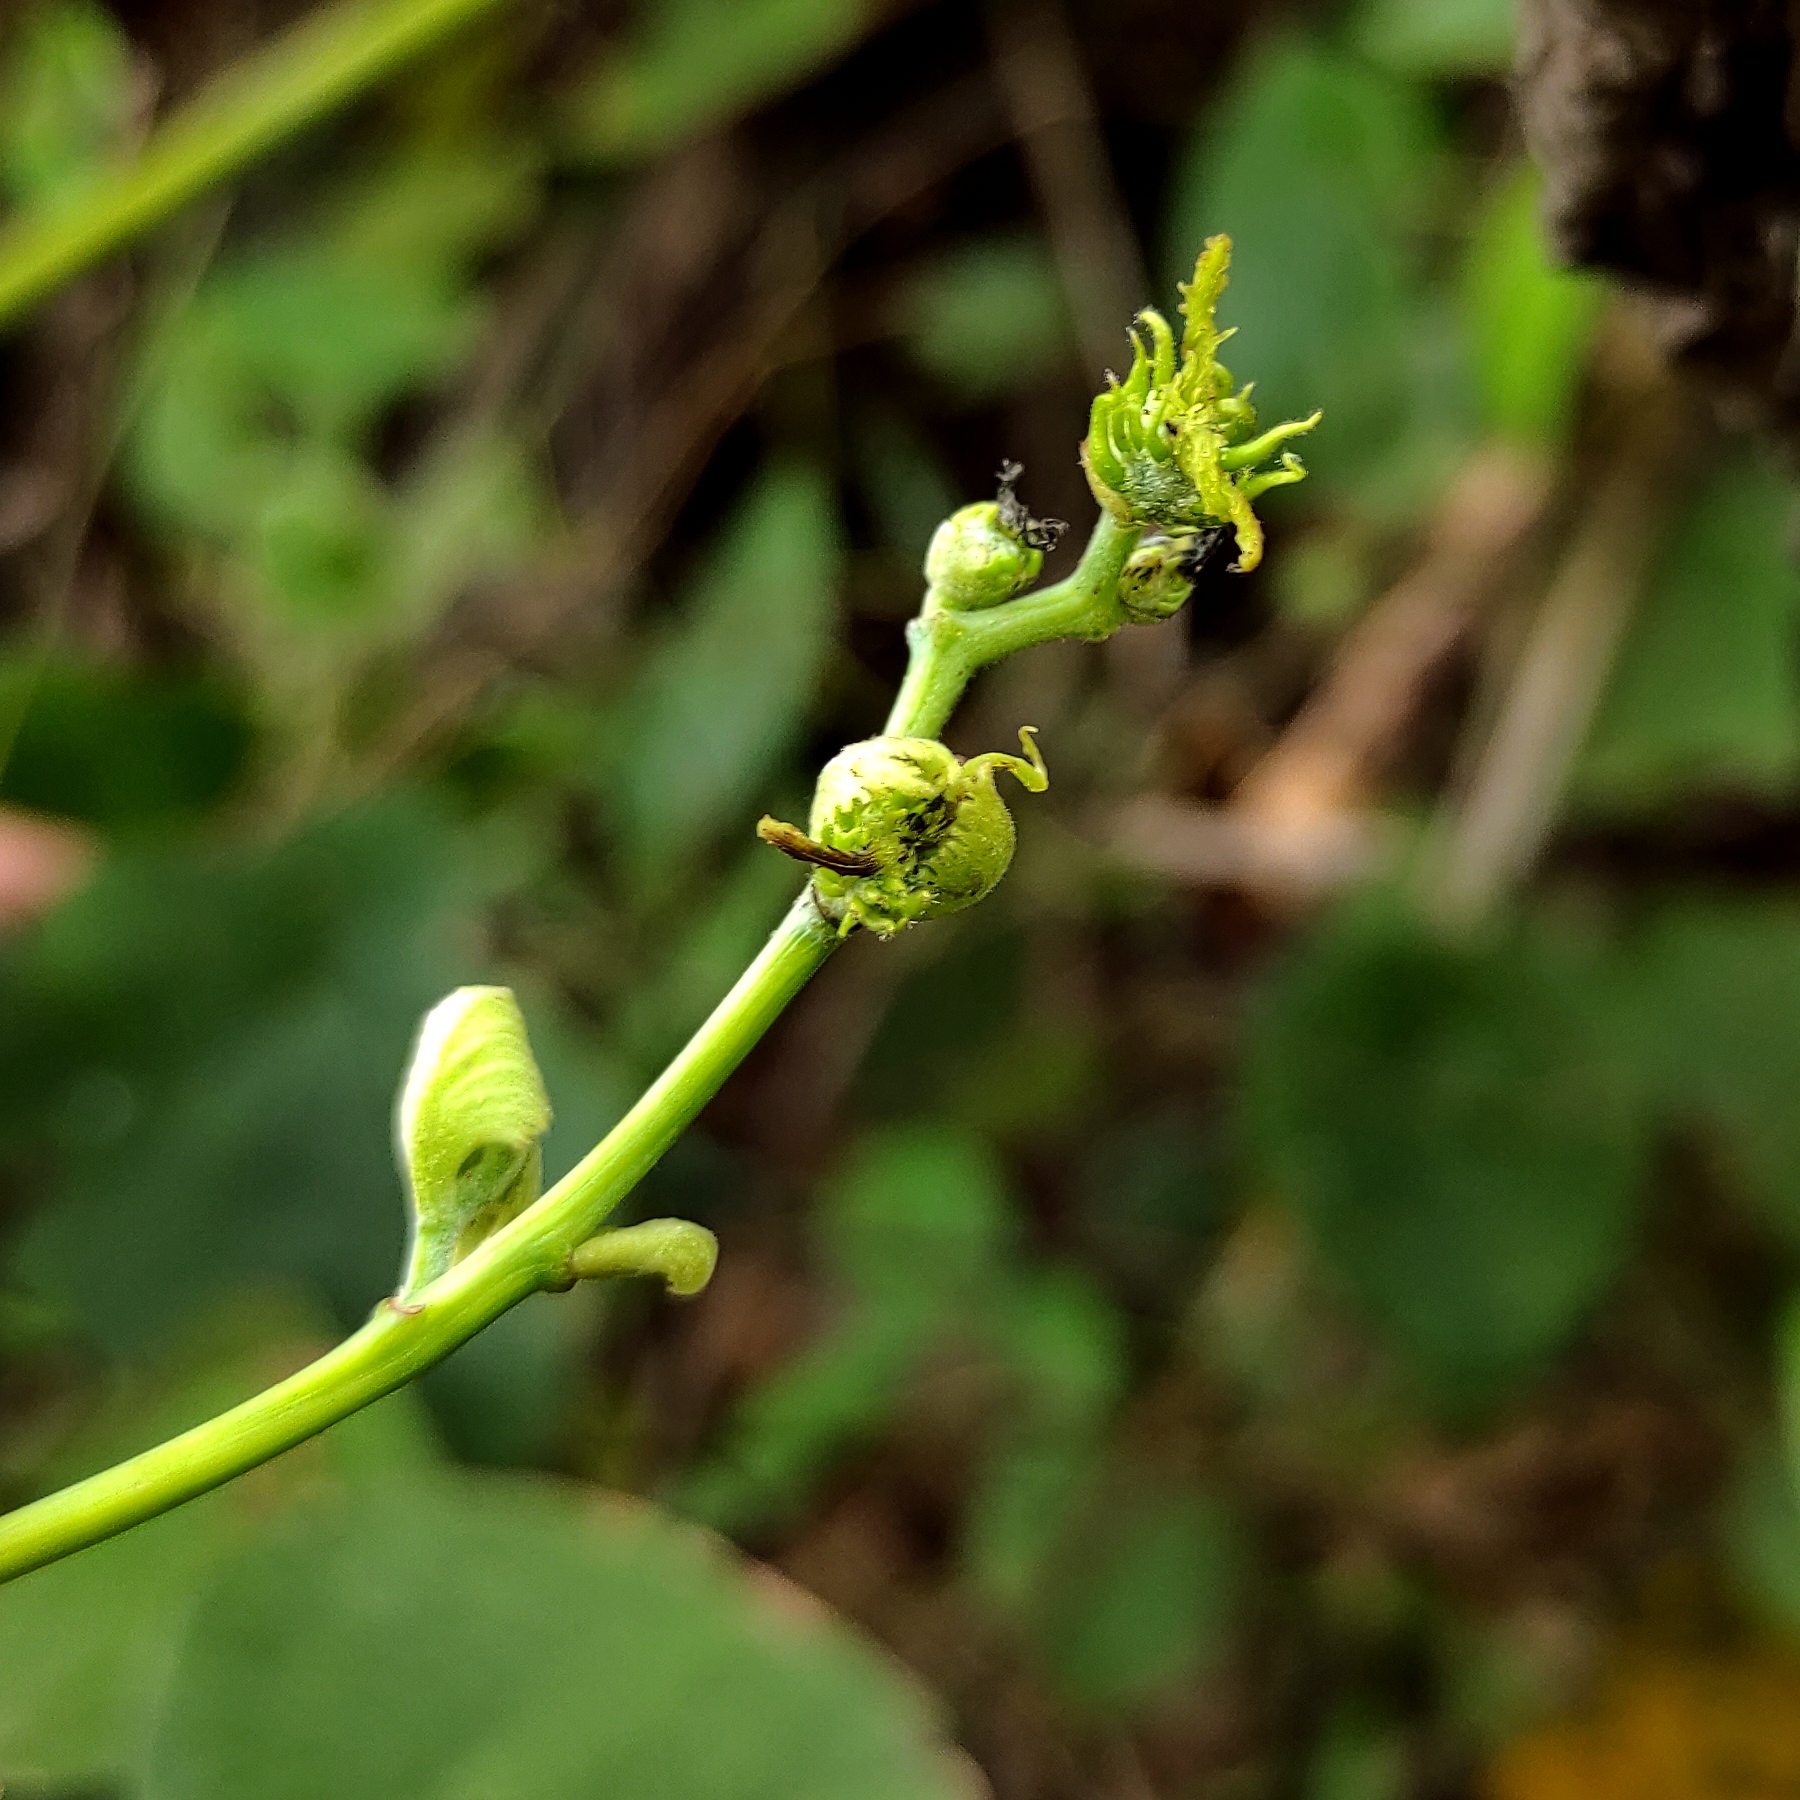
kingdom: Plantae
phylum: Tracheophyta
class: Magnoliopsida
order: Malpighiales
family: Euphorbiaceae
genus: Macaranga
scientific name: Macaranga tanarius
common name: Parasol leaf tree
